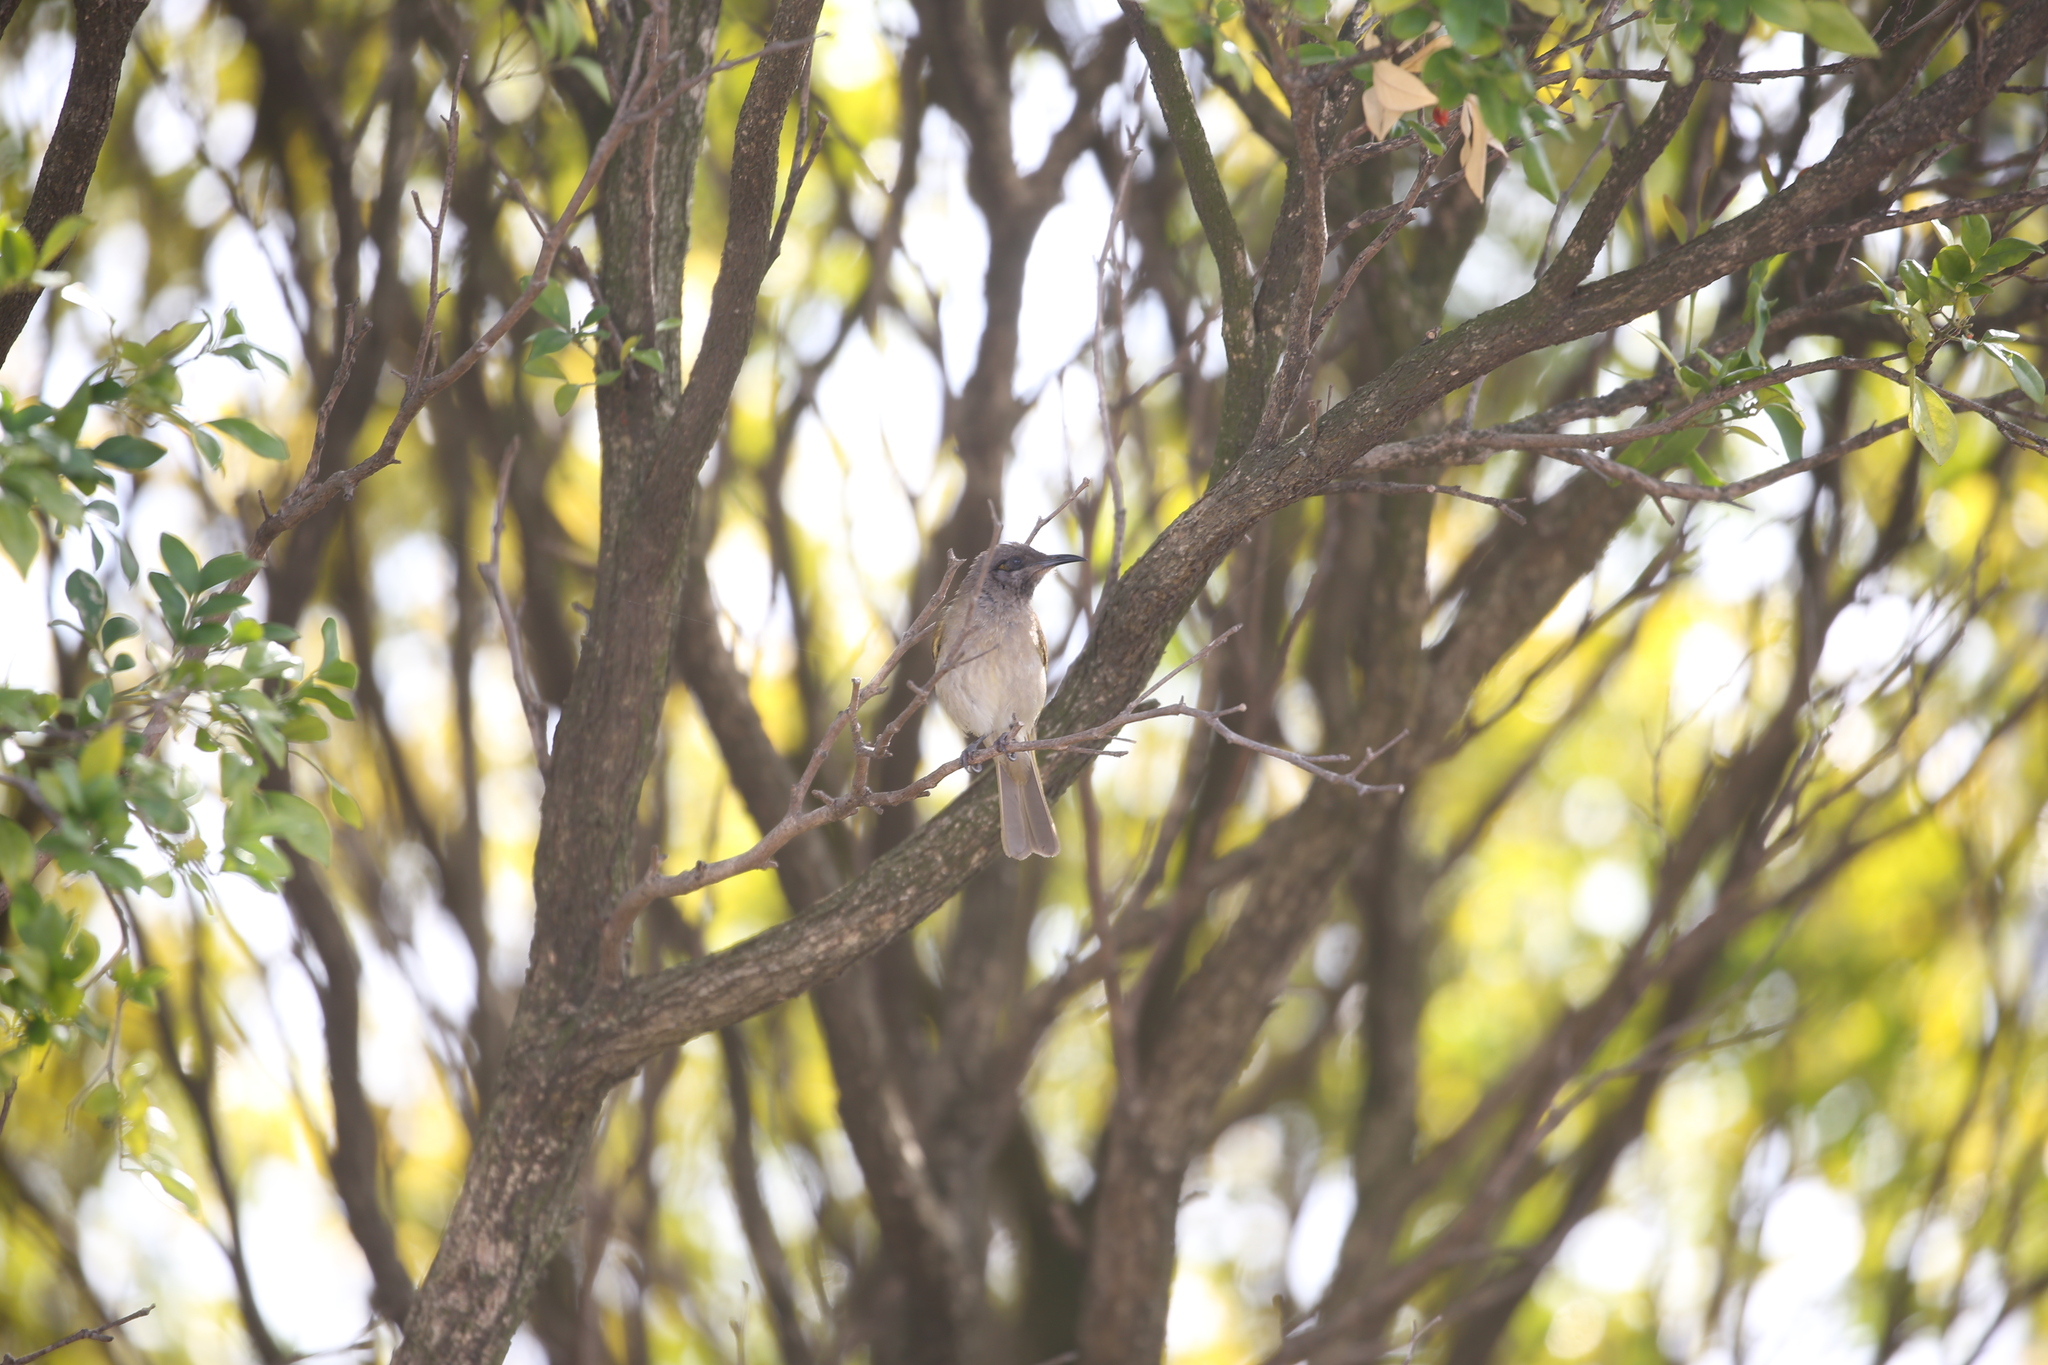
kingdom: Animalia
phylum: Chordata
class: Aves
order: Passeriformes
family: Meliphagidae
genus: Lichmera
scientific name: Lichmera indistincta
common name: Brown honeyeater
